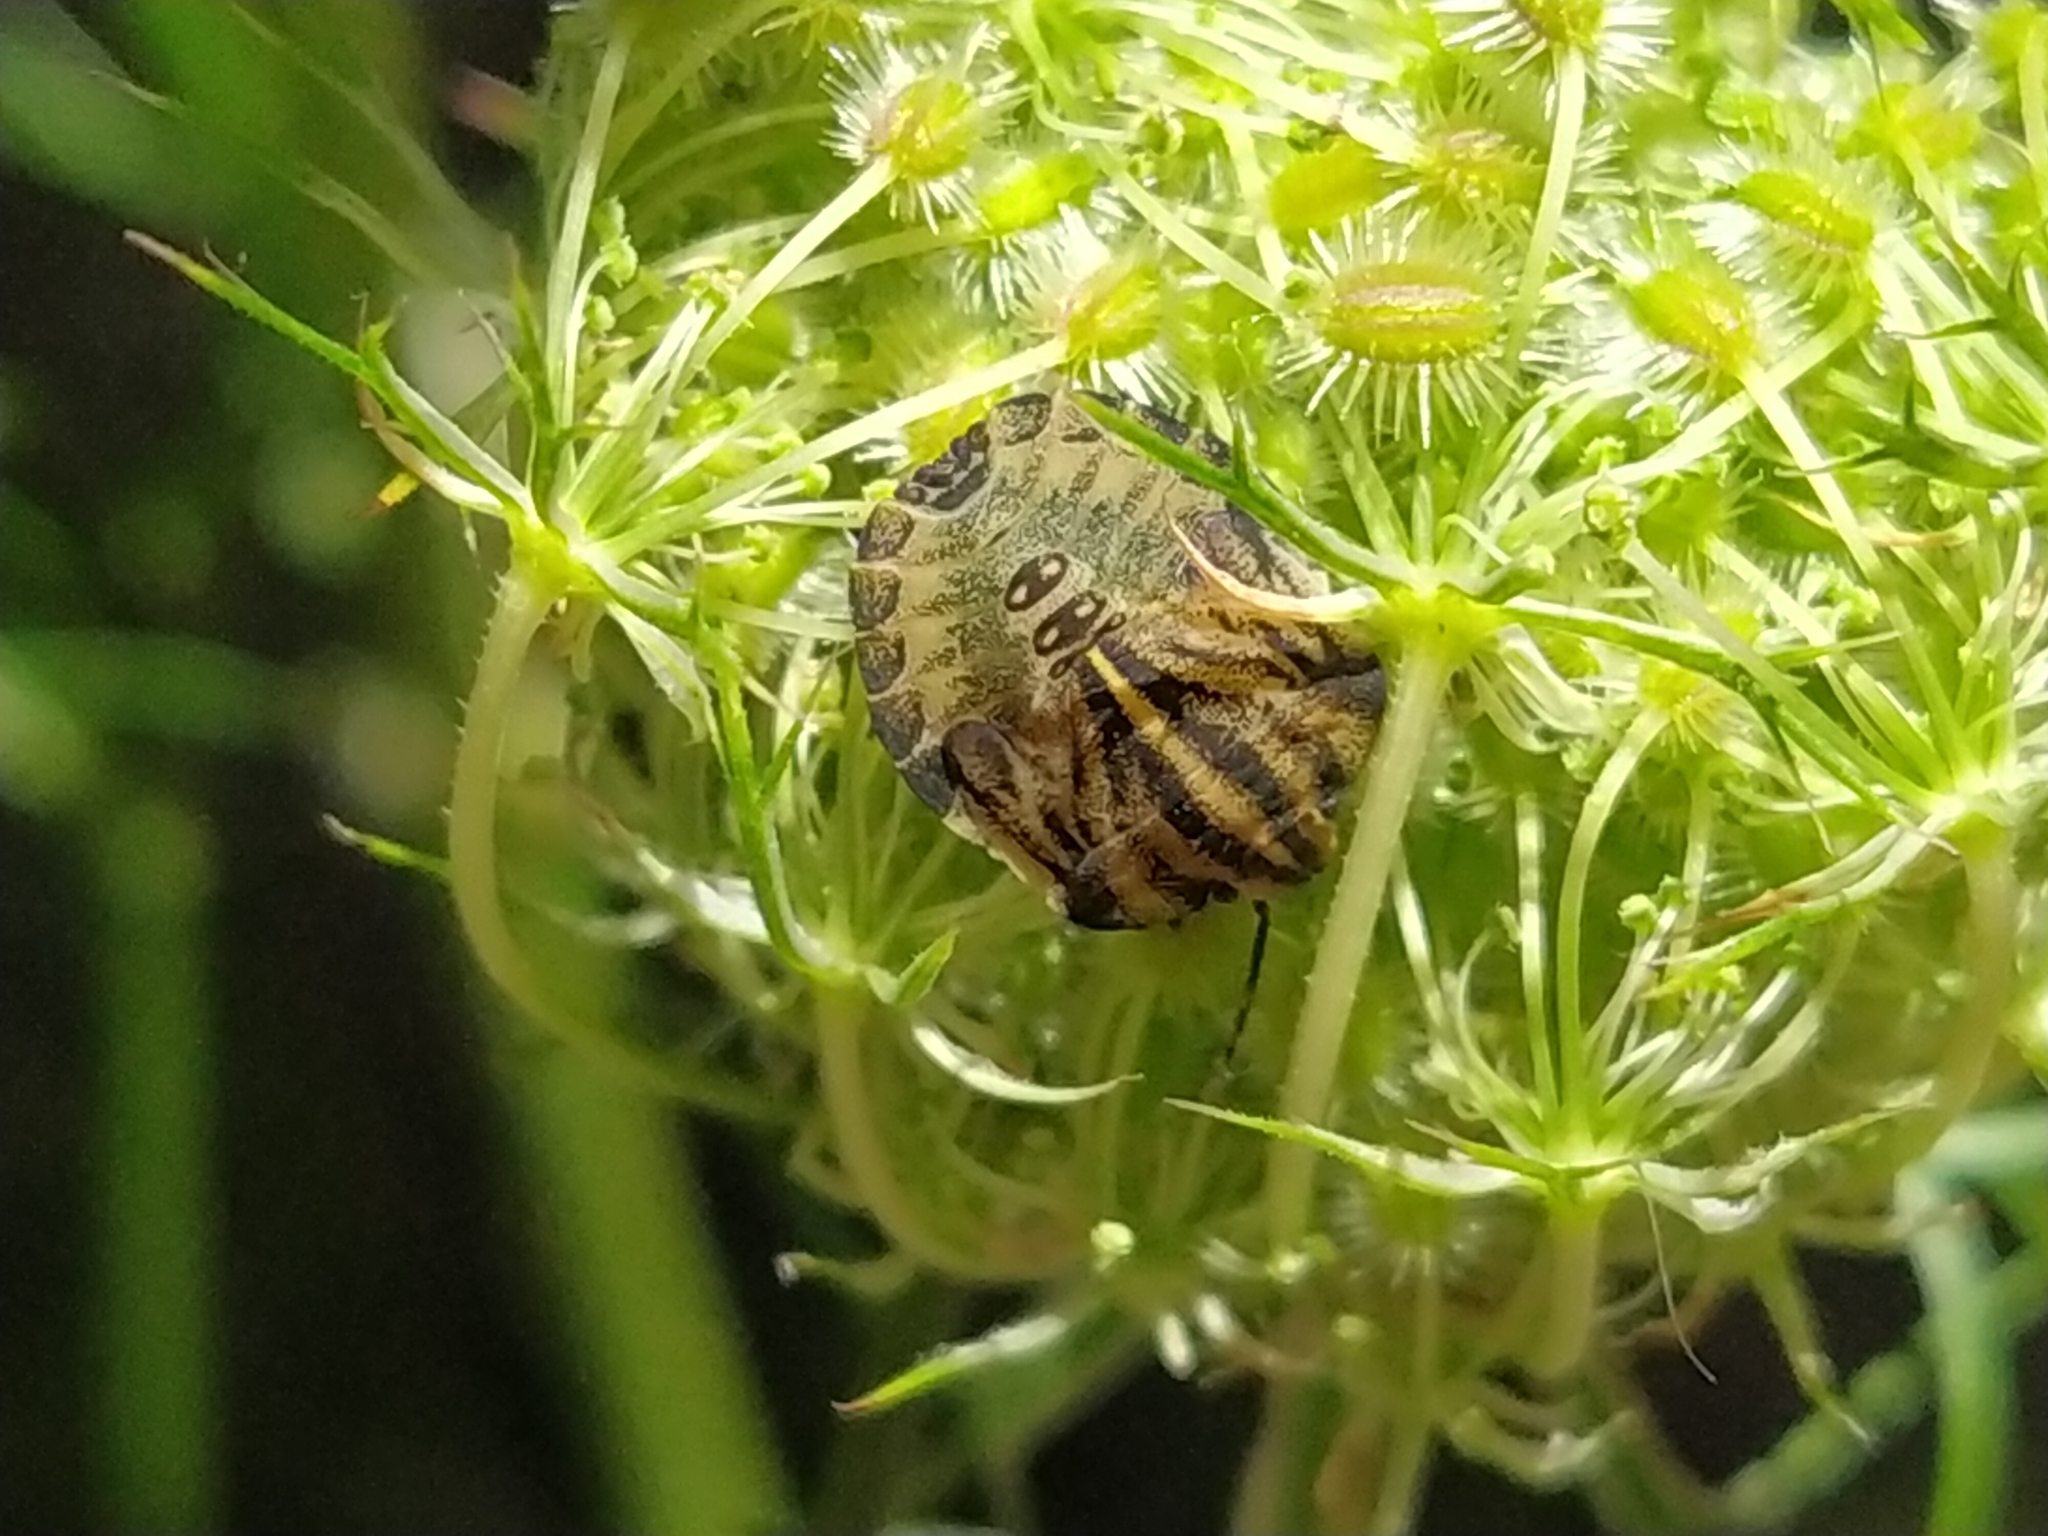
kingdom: Animalia
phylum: Arthropoda
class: Insecta
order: Hemiptera
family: Pentatomidae
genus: Graphosoma
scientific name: Graphosoma italicum
